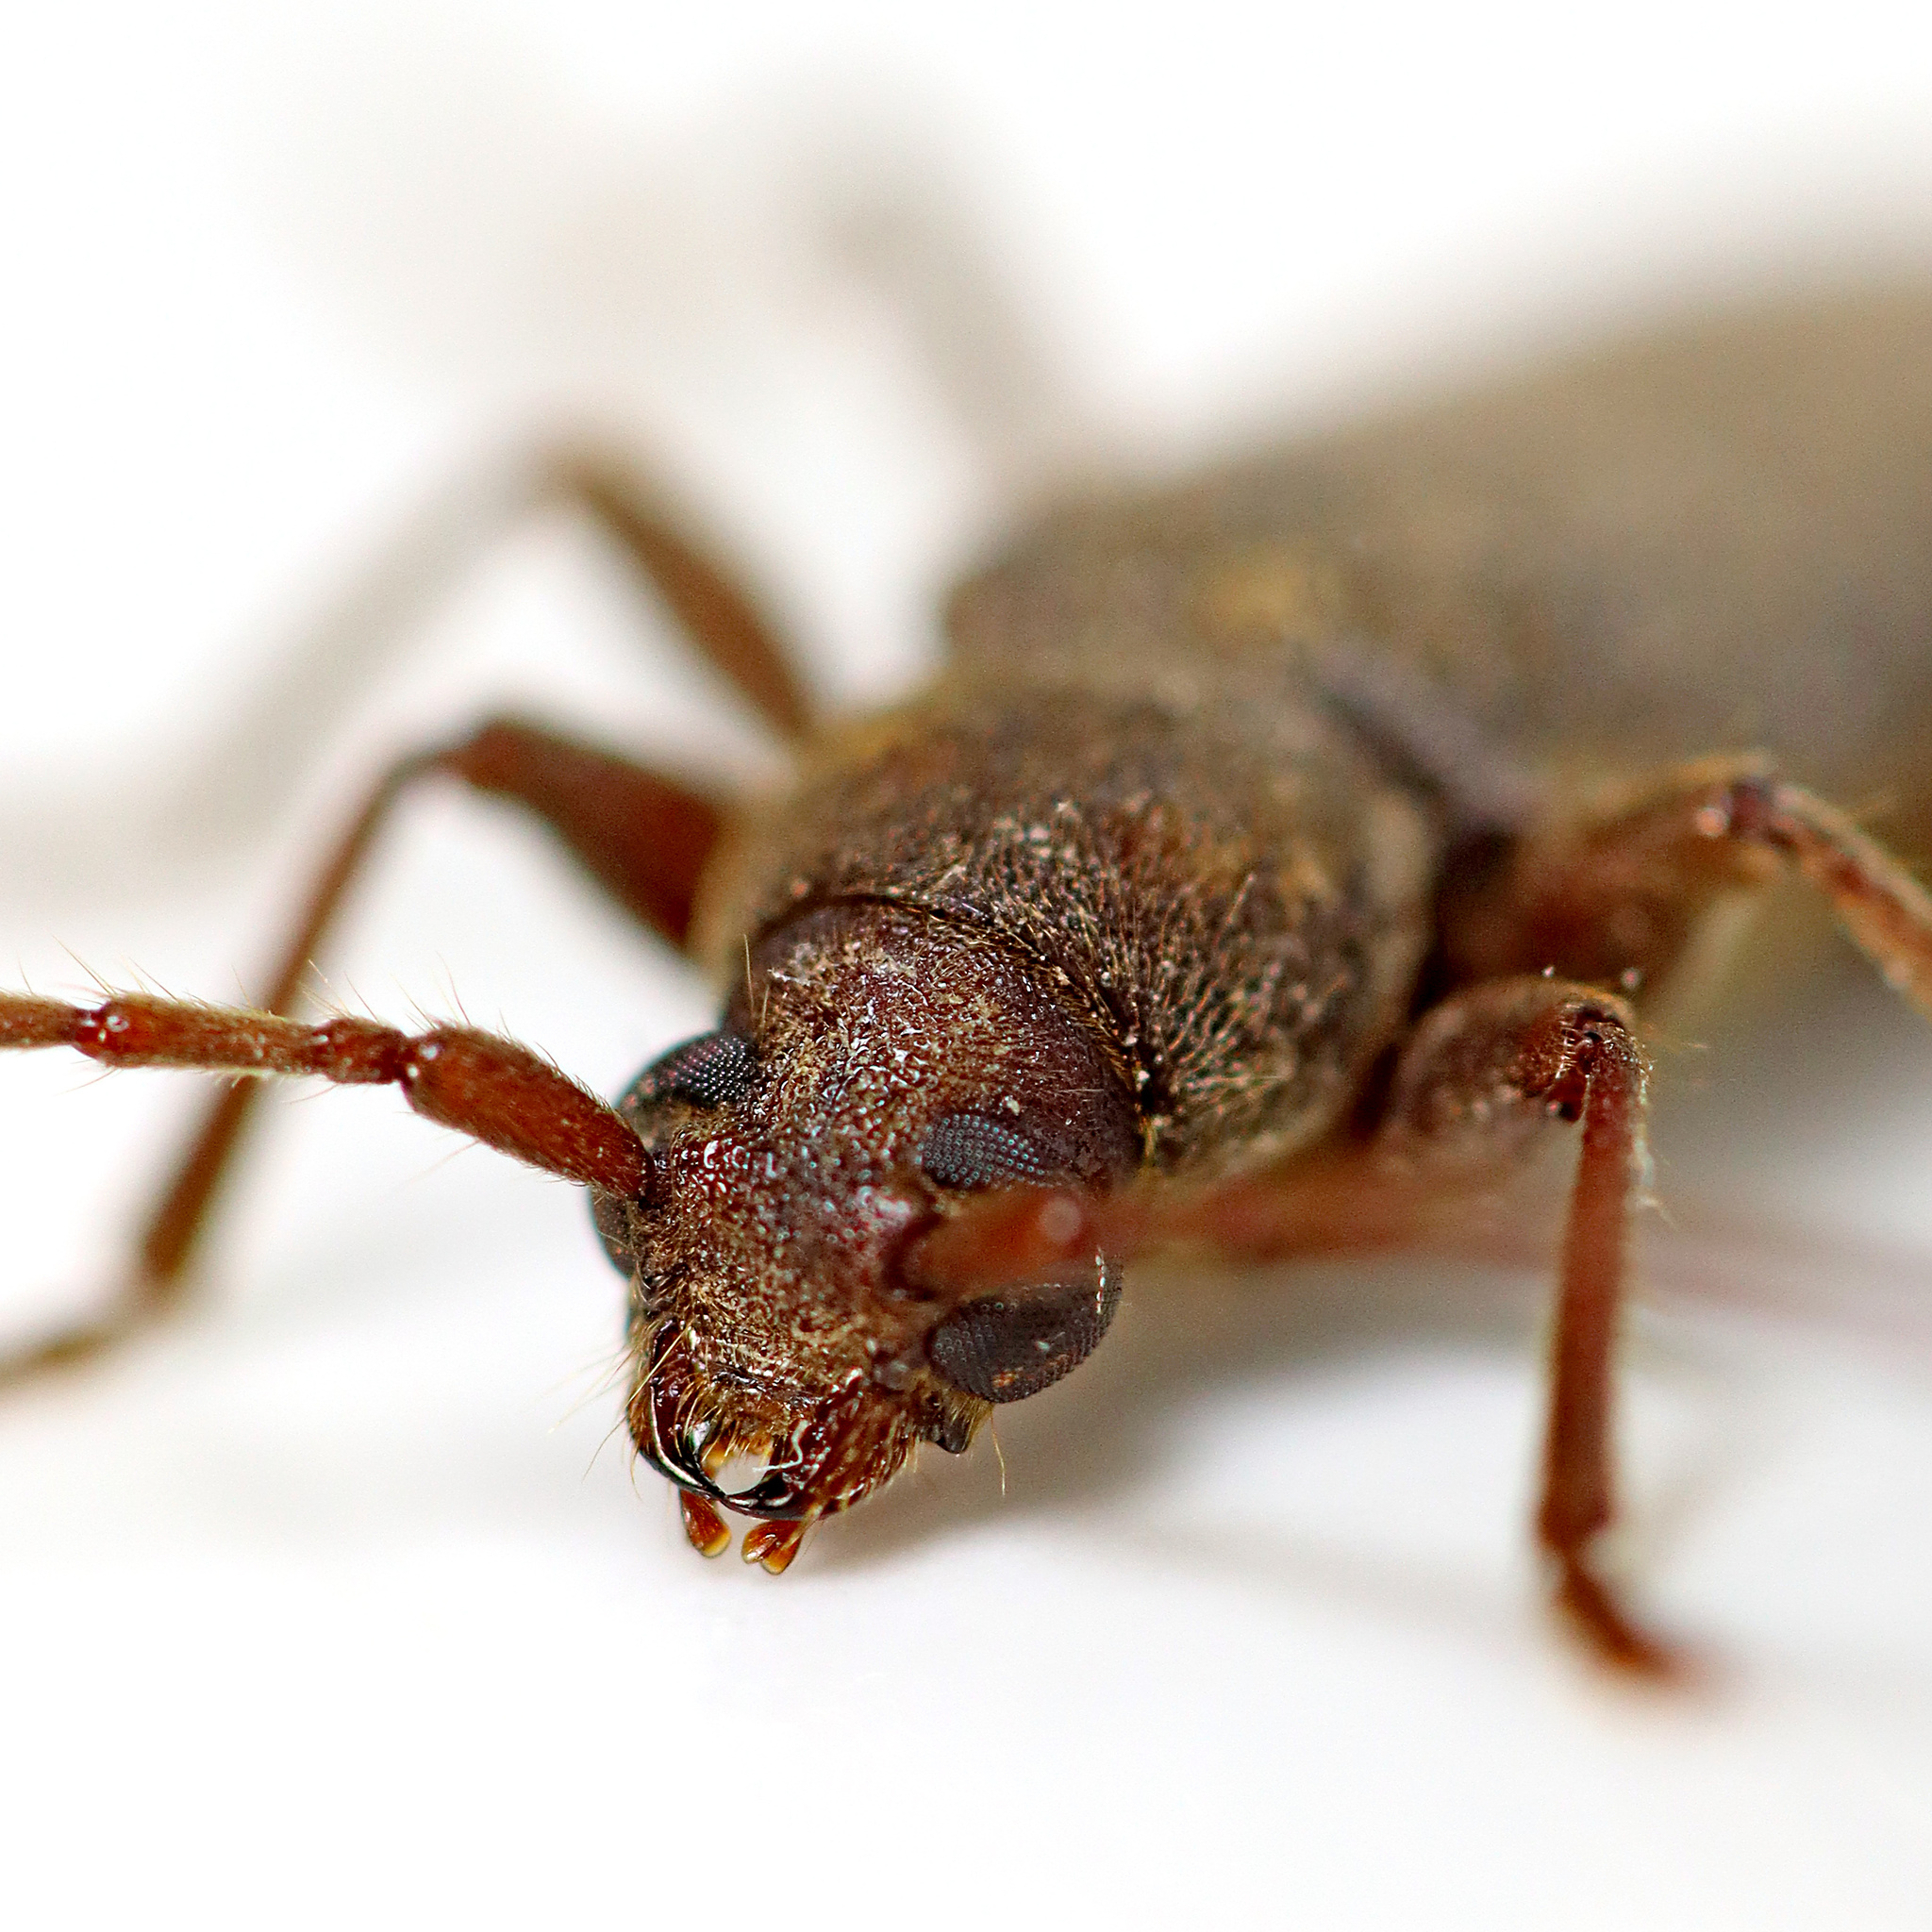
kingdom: Animalia
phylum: Arthropoda
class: Insecta
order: Coleoptera
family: Cerambycidae
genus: Trichoferus
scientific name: Trichoferus campestris
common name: Velvet long horned beetle
